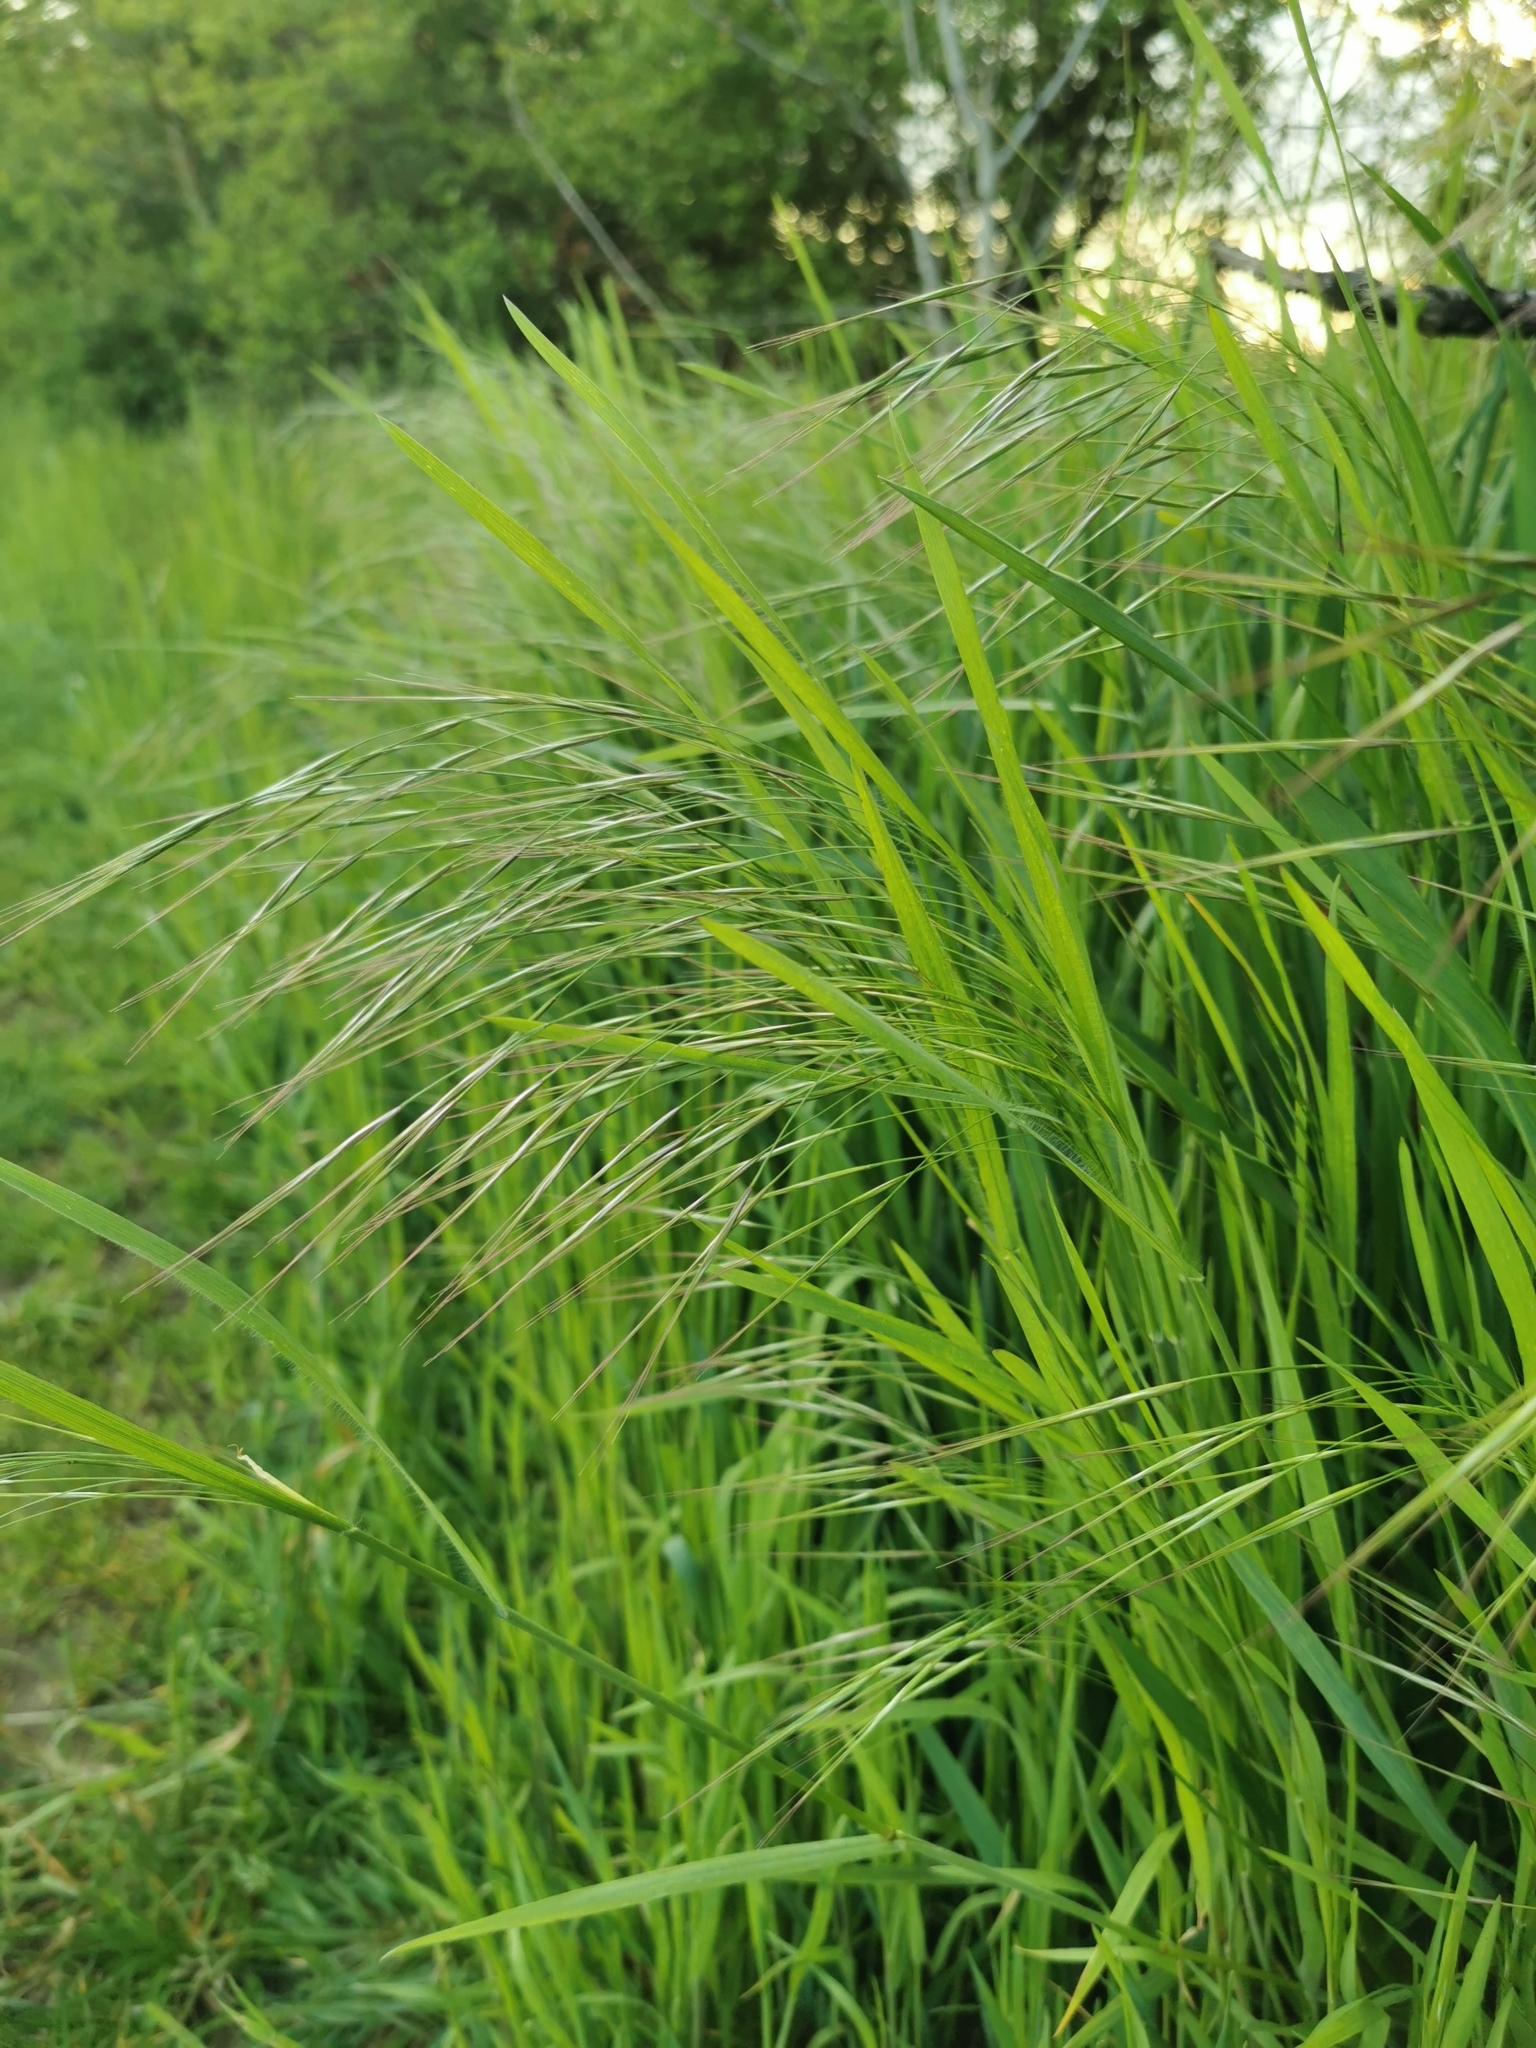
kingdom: Plantae
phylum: Tracheophyta
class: Liliopsida
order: Poales
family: Poaceae
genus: Bromus
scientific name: Bromus sterilis
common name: Poverty brome
